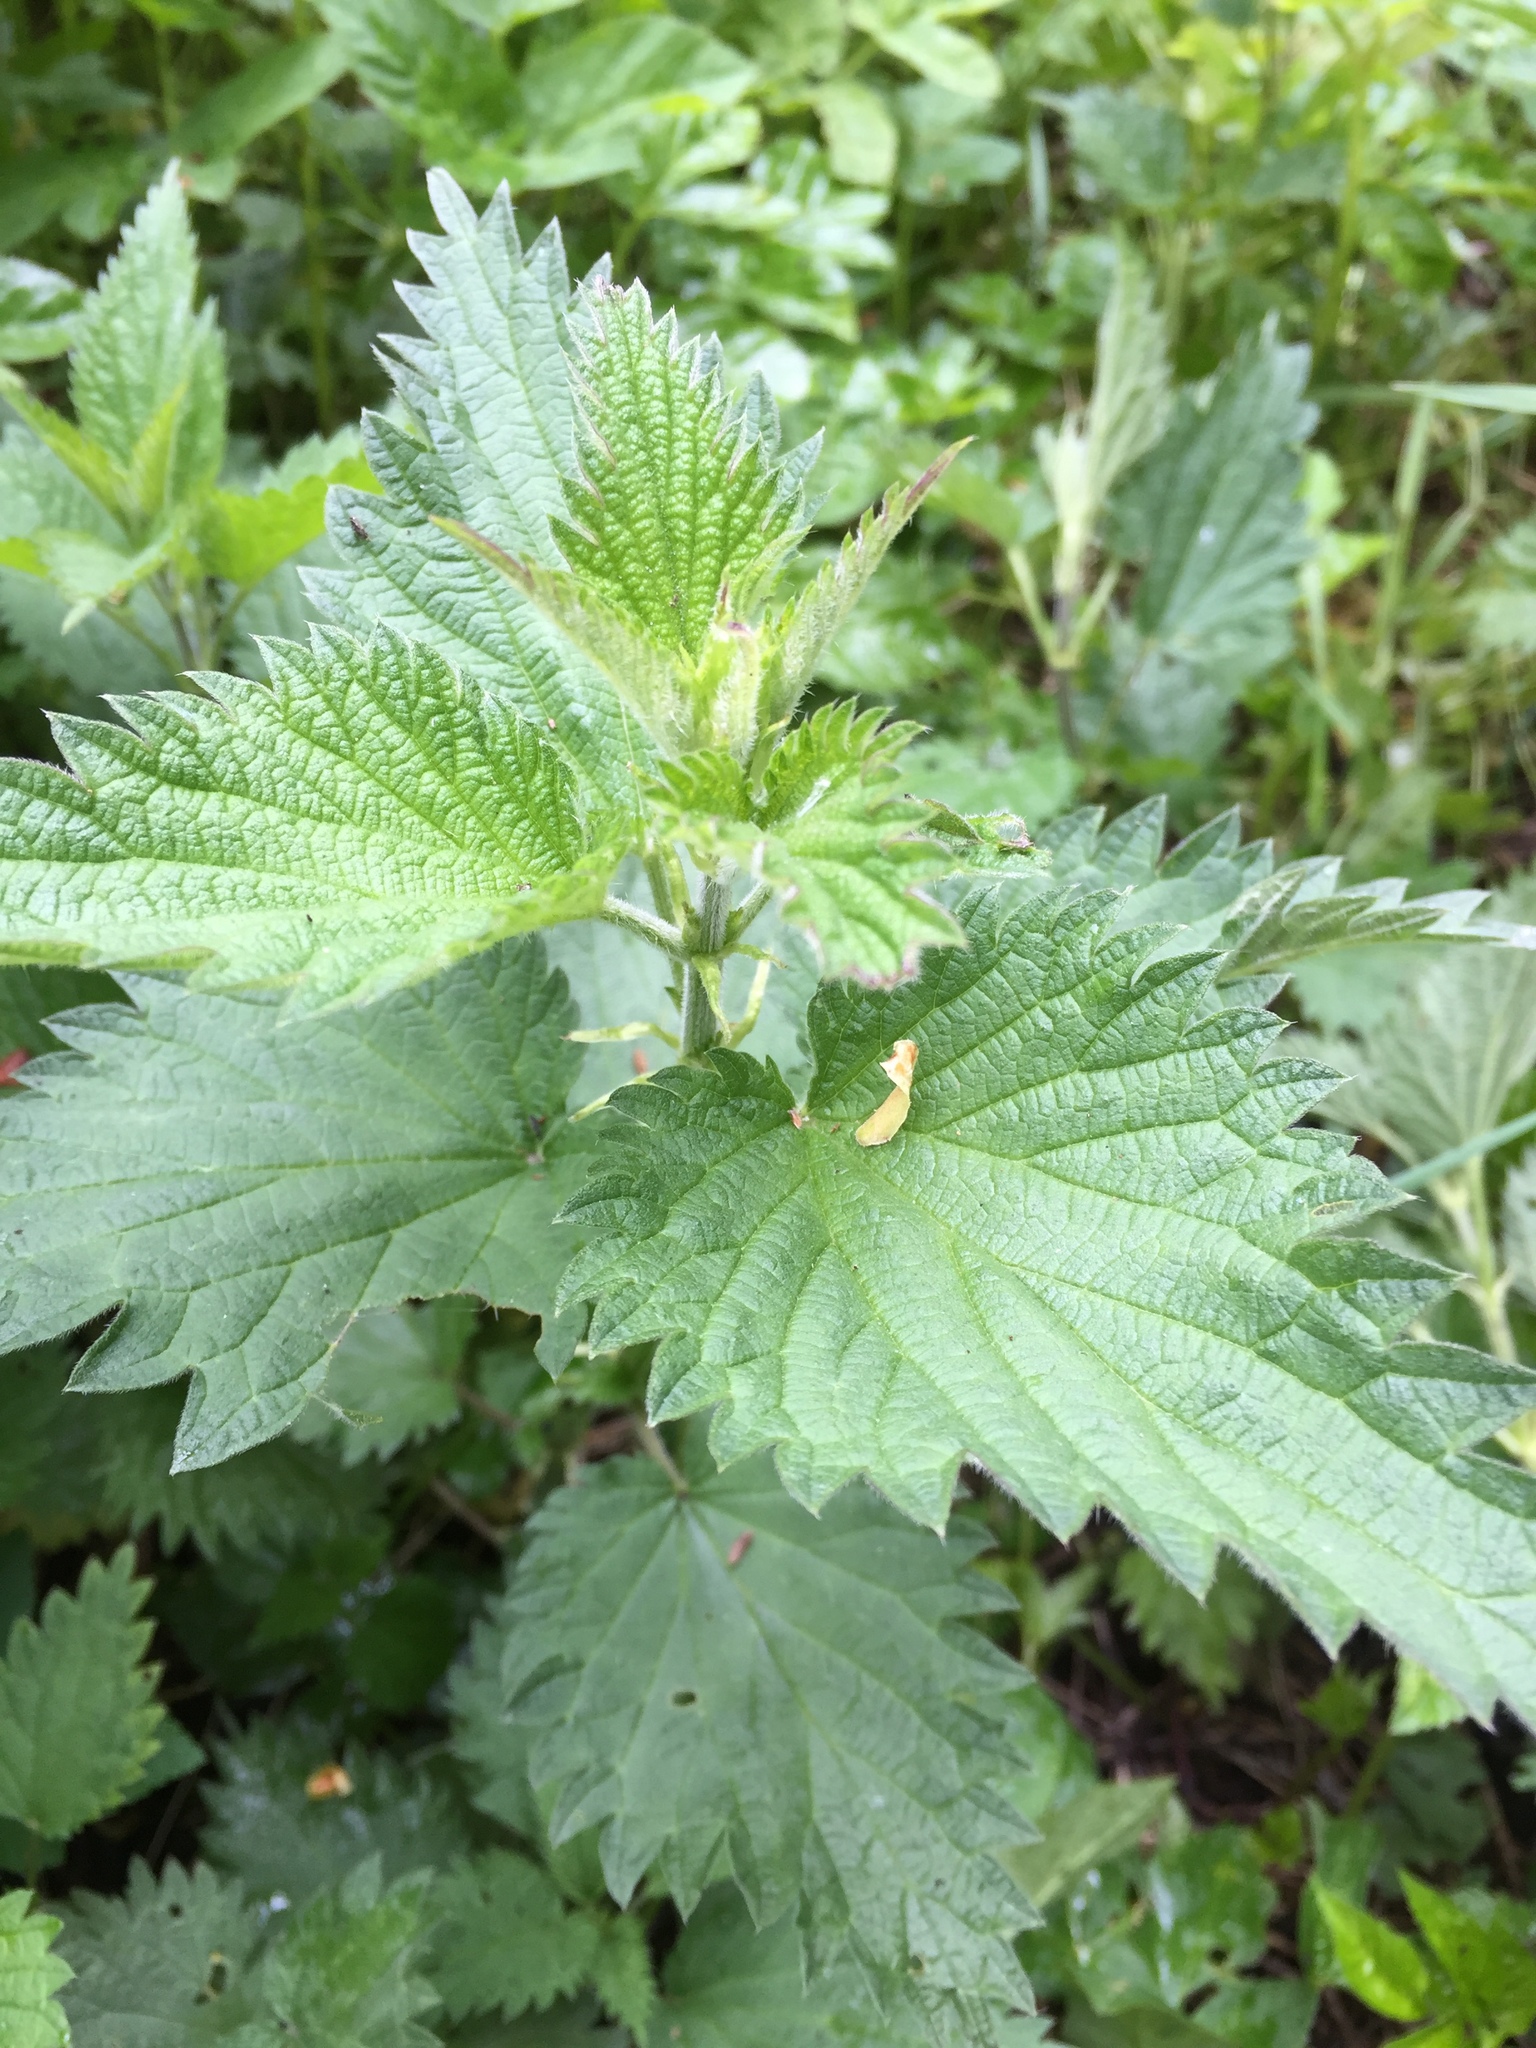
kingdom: Plantae
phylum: Tracheophyta
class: Magnoliopsida
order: Rosales
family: Urticaceae
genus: Urtica
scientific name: Urtica dioica
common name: Common nettle
